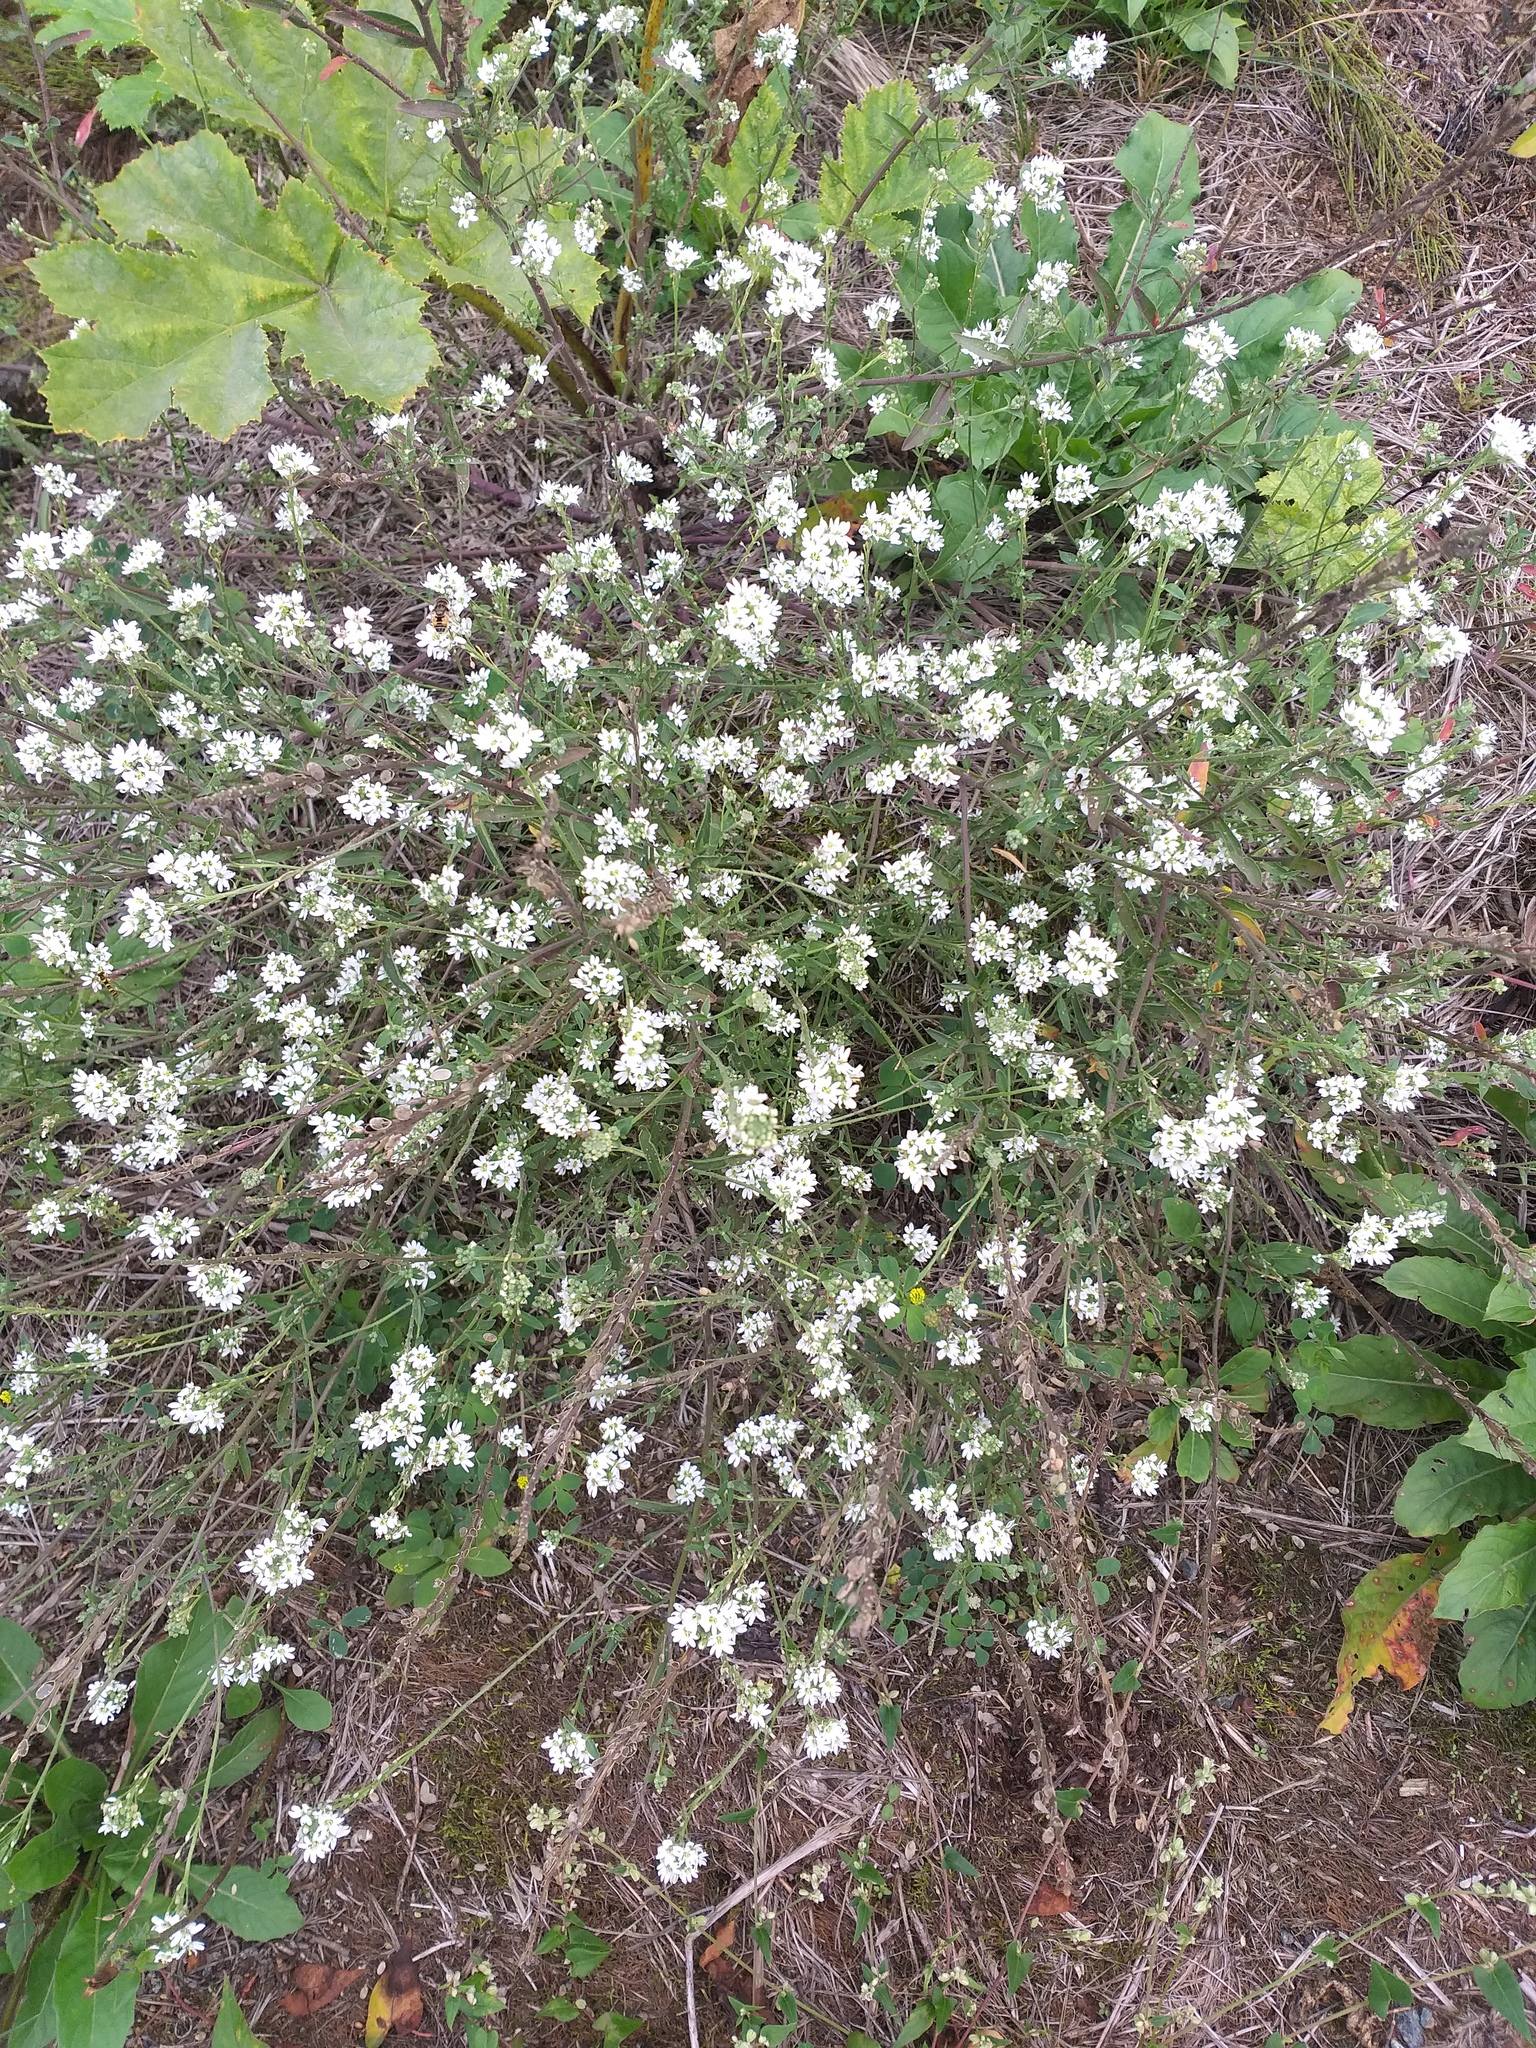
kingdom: Plantae
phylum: Tracheophyta
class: Magnoliopsida
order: Brassicales
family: Brassicaceae
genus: Berteroa
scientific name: Berteroa incana
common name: Hoary alison
